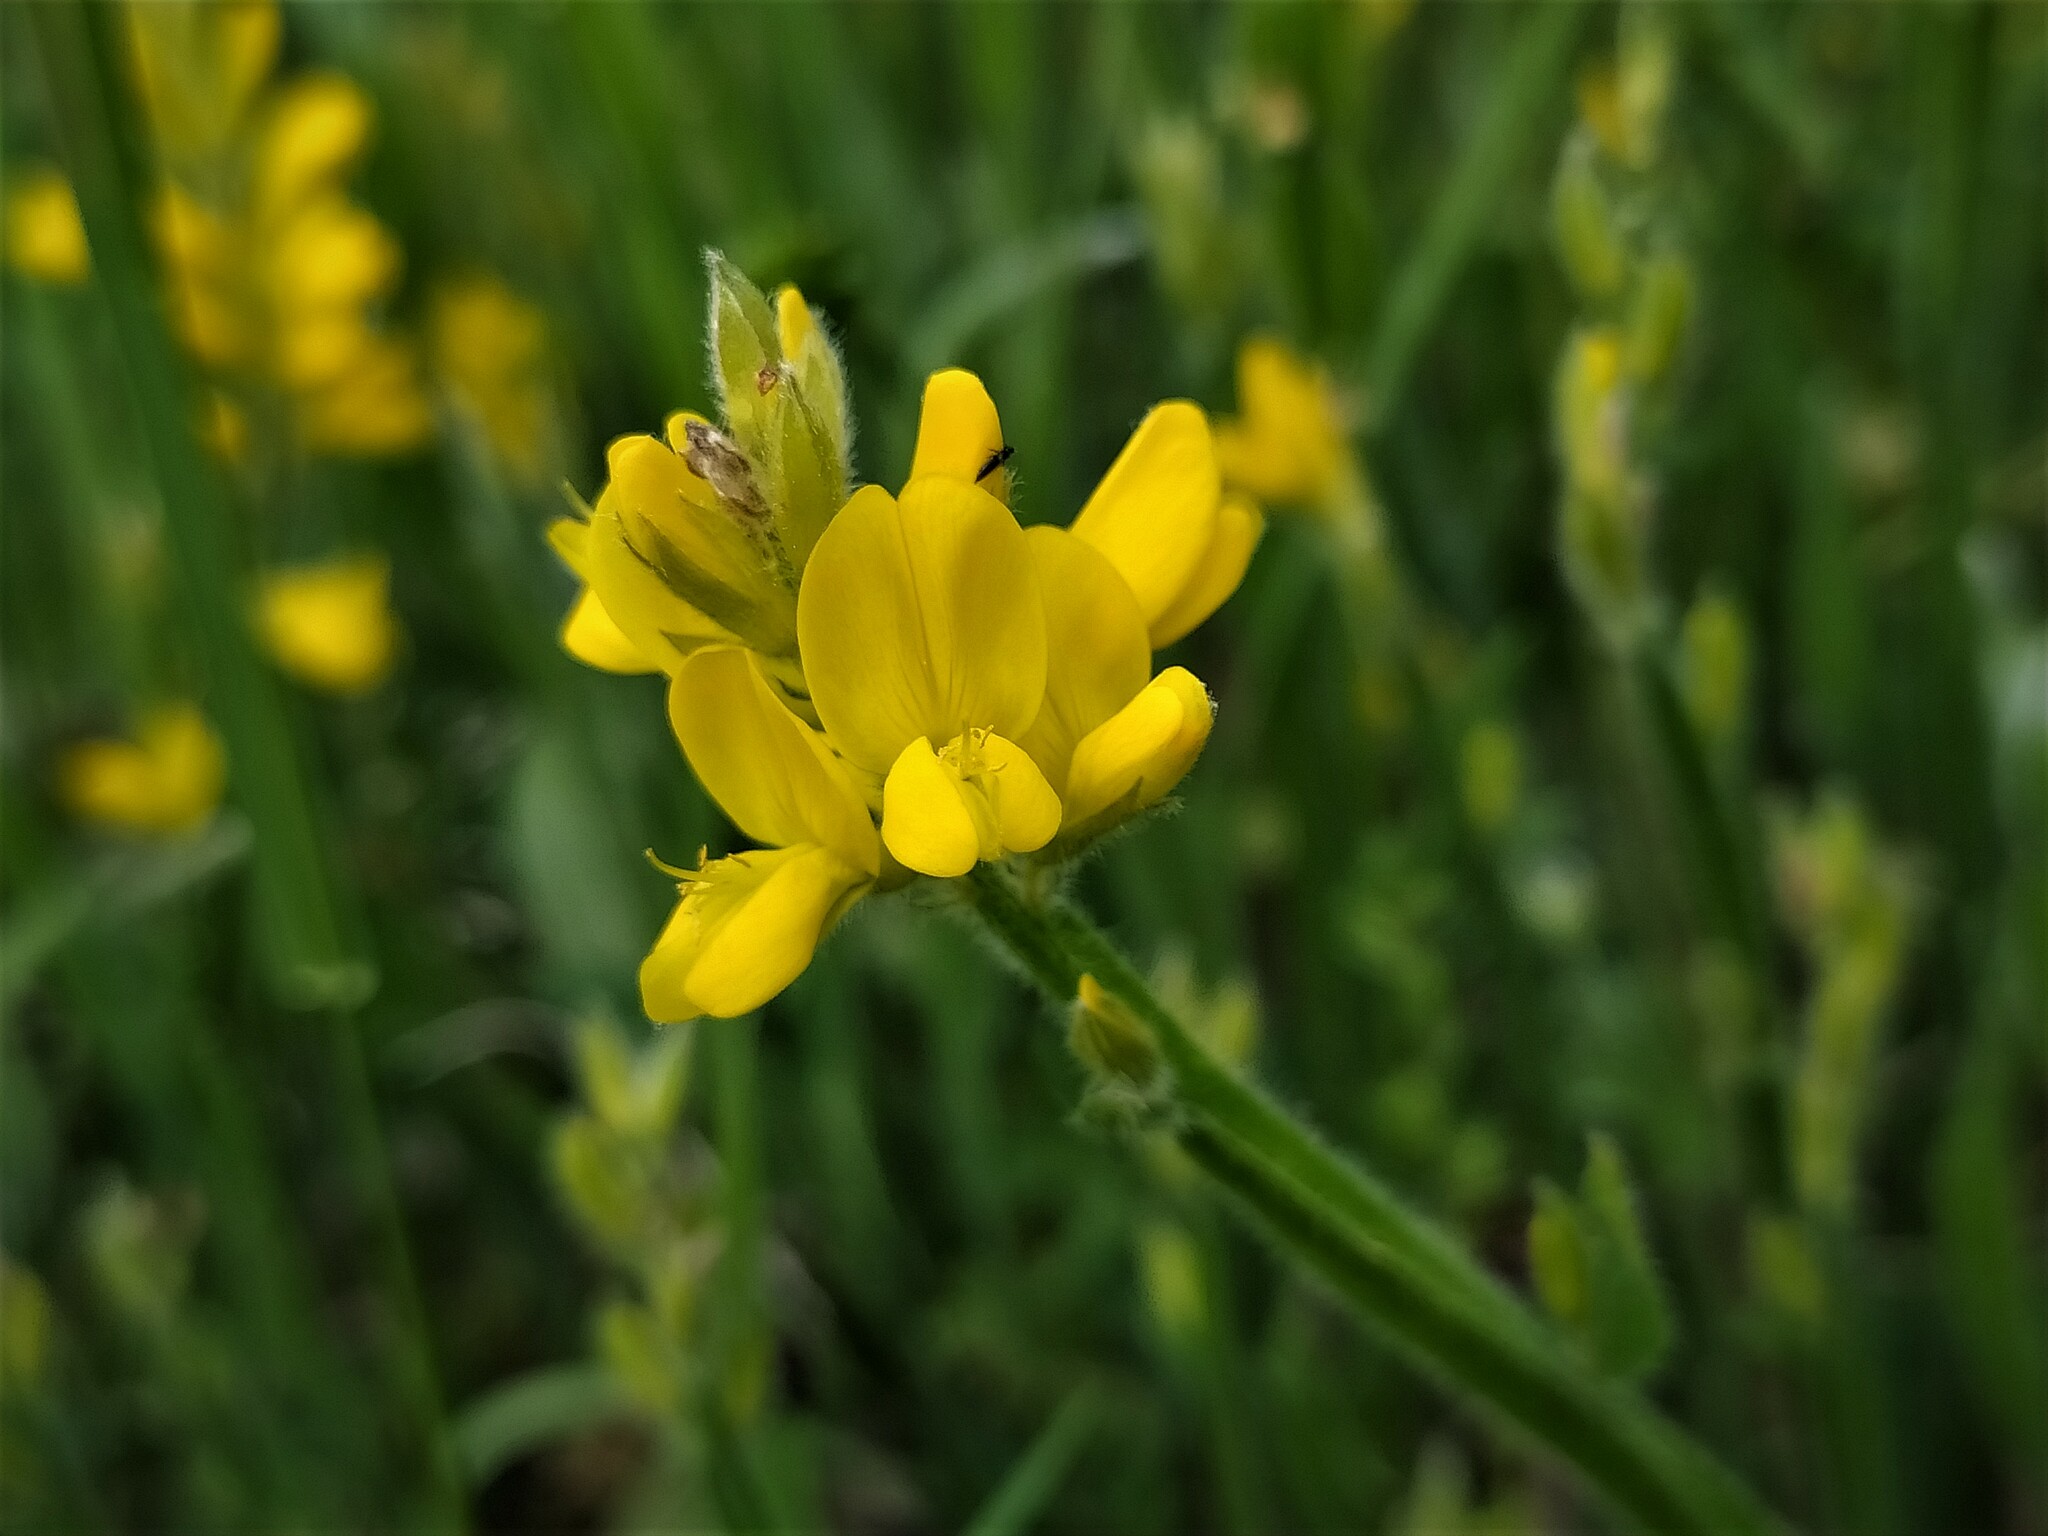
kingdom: Plantae
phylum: Tracheophyta
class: Magnoliopsida
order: Fabales
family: Fabaceae
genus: Genista
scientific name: Genista sagittalis
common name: Winged greenweed
